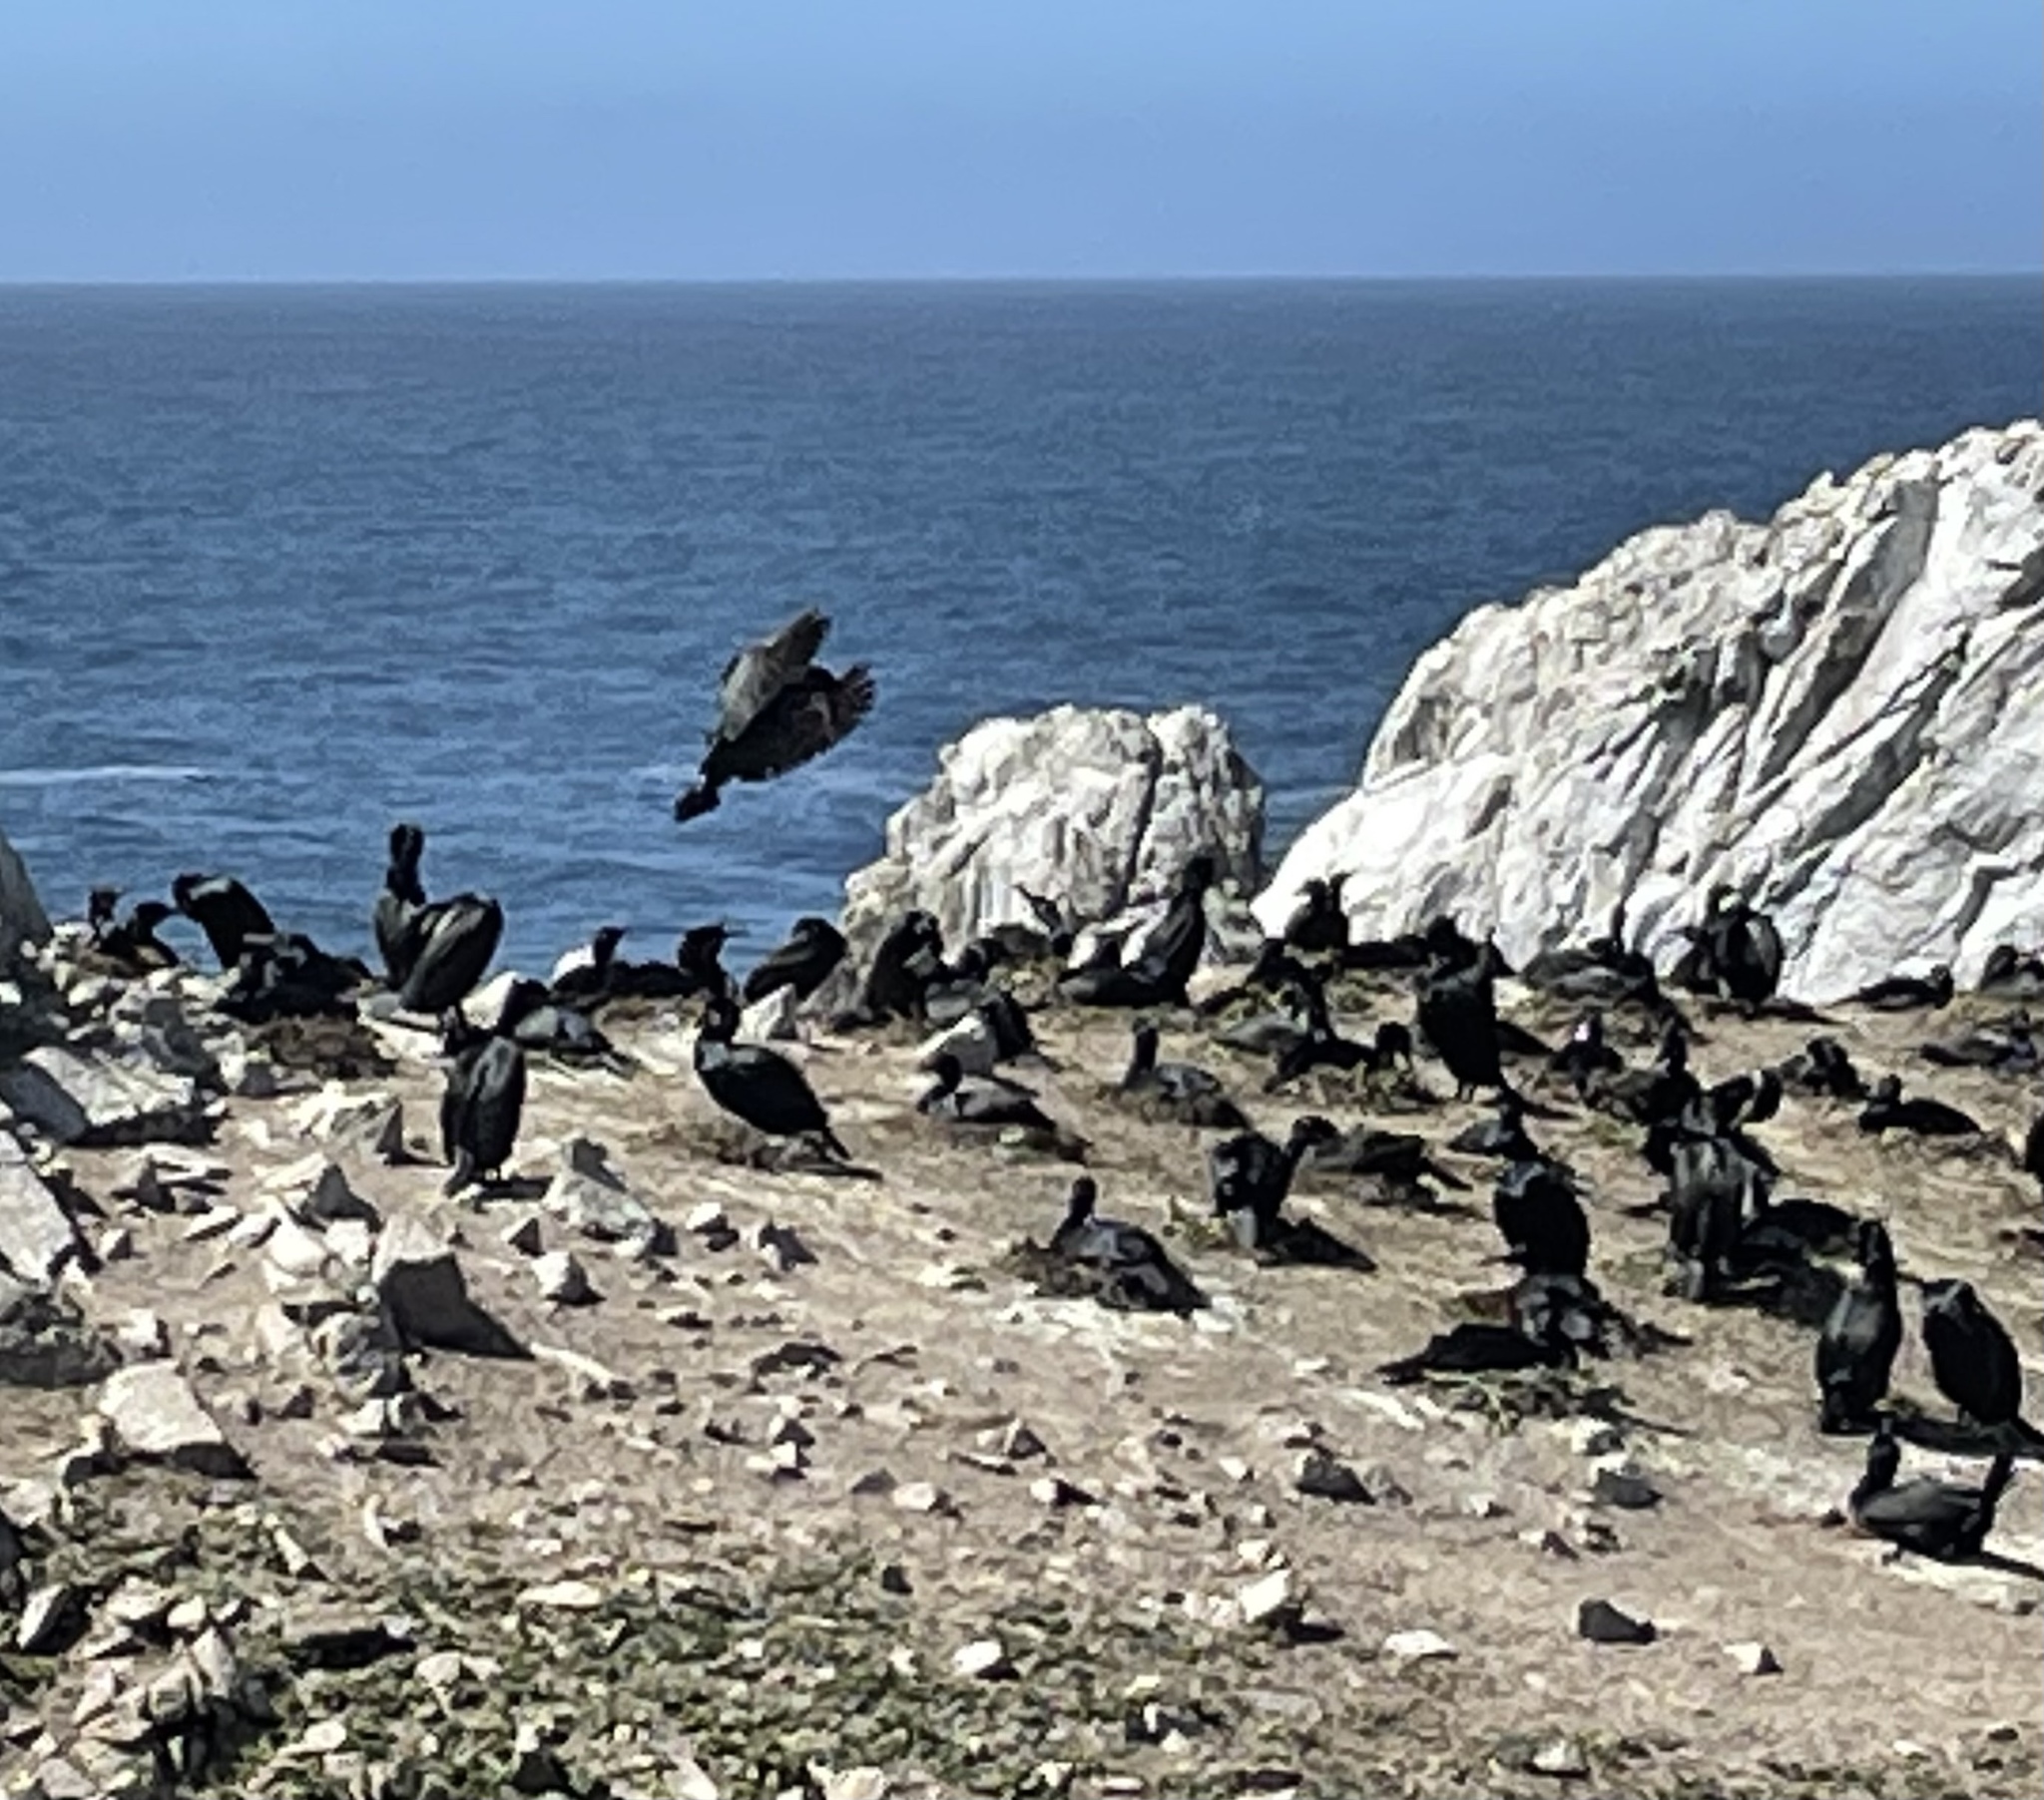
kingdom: Animalia
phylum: Chordata
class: Aves
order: Suliformes
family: Phalacrocoracidae
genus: Urile
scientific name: Urile penicillatus
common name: Brandt's cormorant
